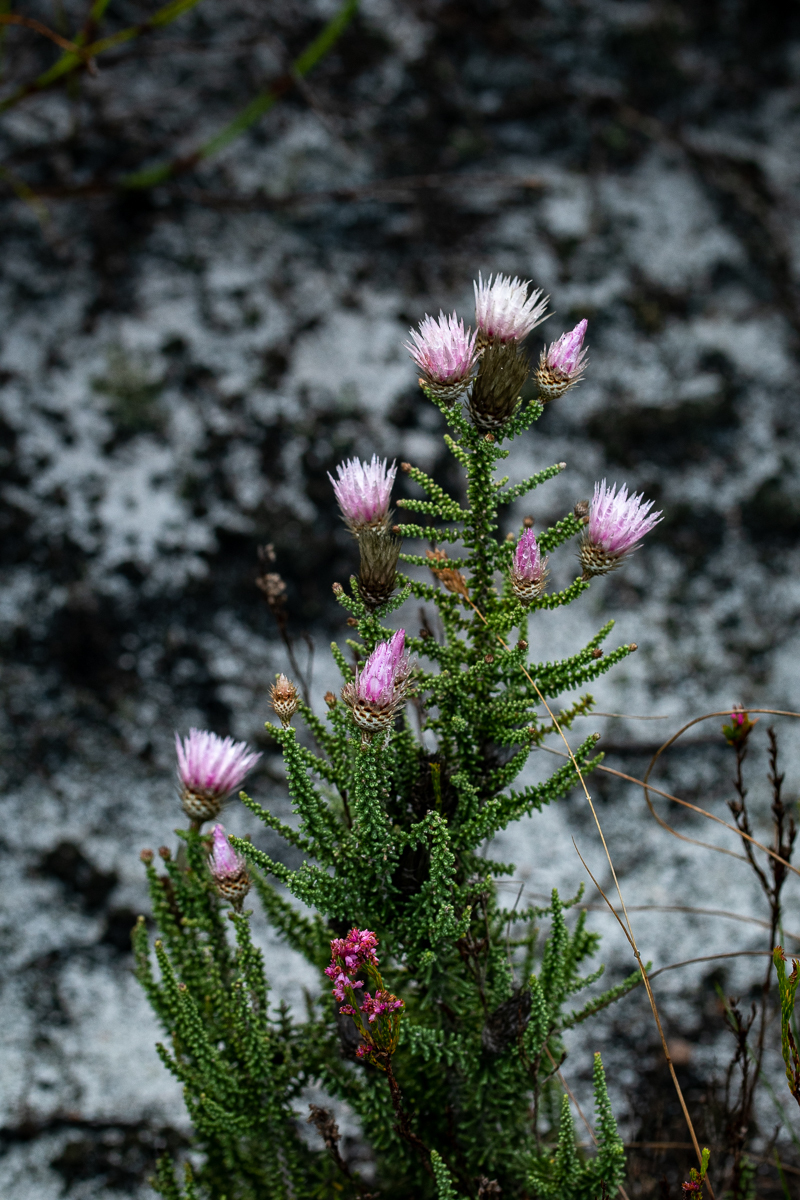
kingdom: Plantae
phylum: Tracheophyta
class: Magnoliopsida
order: Asterales
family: Asteraceae
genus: Phaenocoma
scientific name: Phaenocoma prolifera
